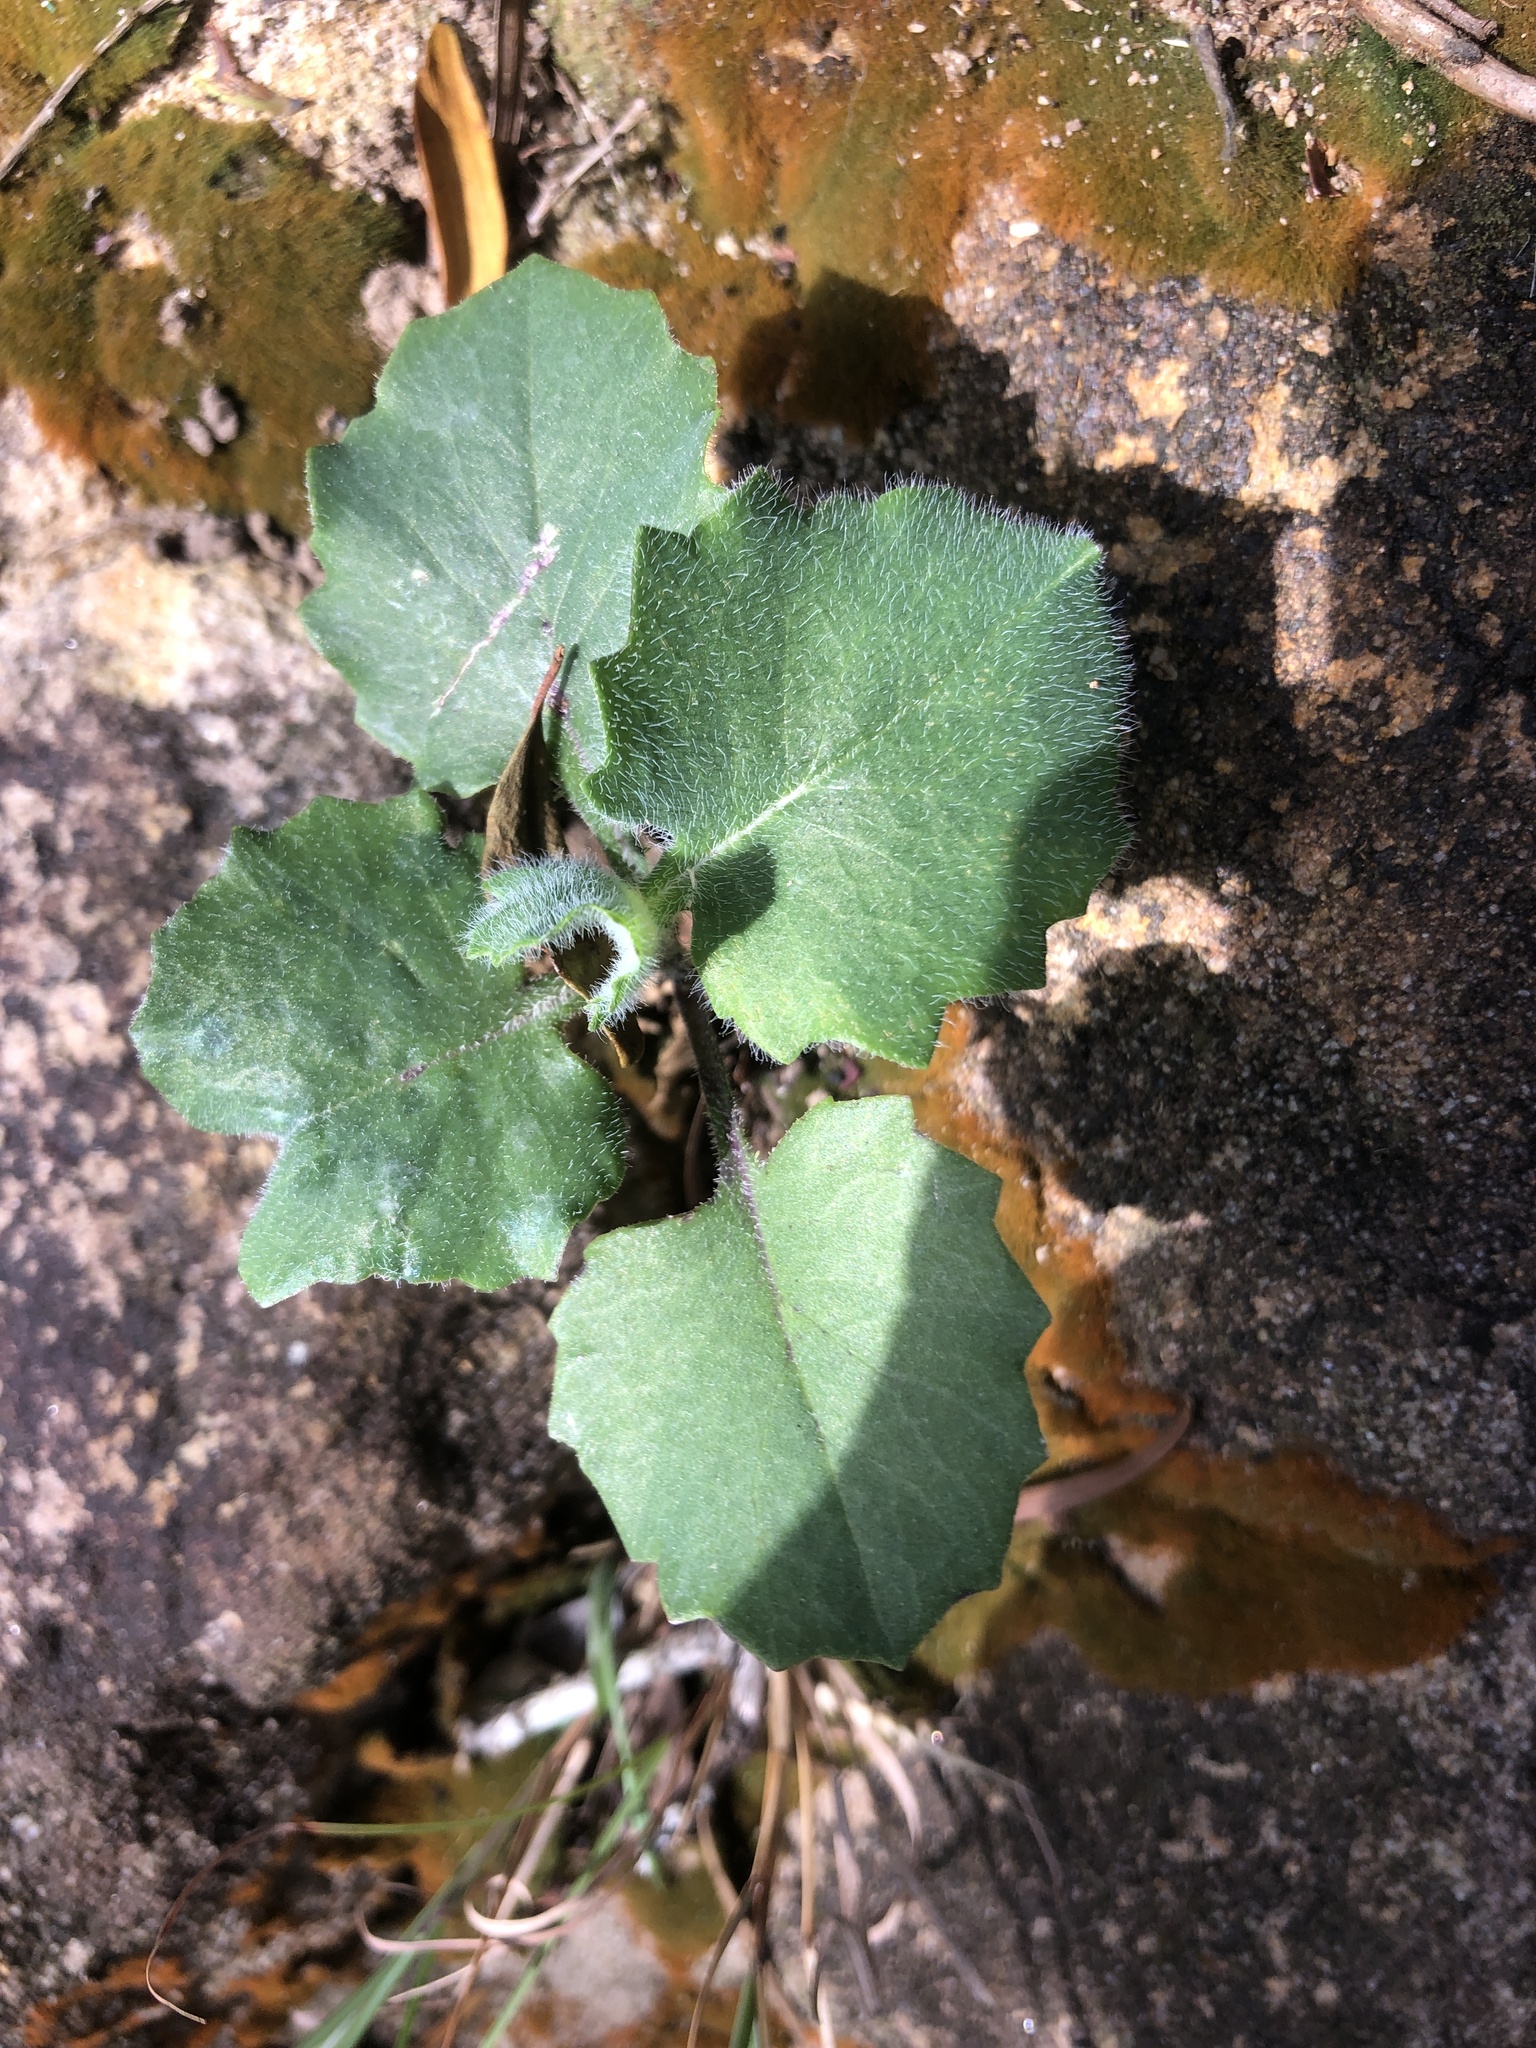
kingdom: Plantae
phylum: Tracheophyta
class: Magnoliopsida
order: Asterales
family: Asteraceae
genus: Emilia
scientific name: Emilia praetermissa
